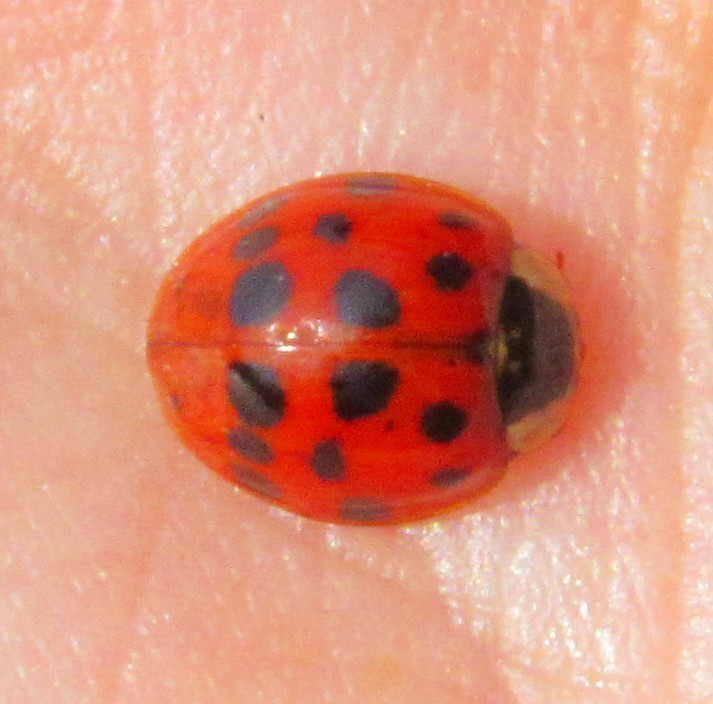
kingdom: Animalia
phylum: Arthropoda
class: Insecta
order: Coleoptera
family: Coccinellidae
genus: Harmonia
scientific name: Harmonia axyridis
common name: Harlequin ladybird
